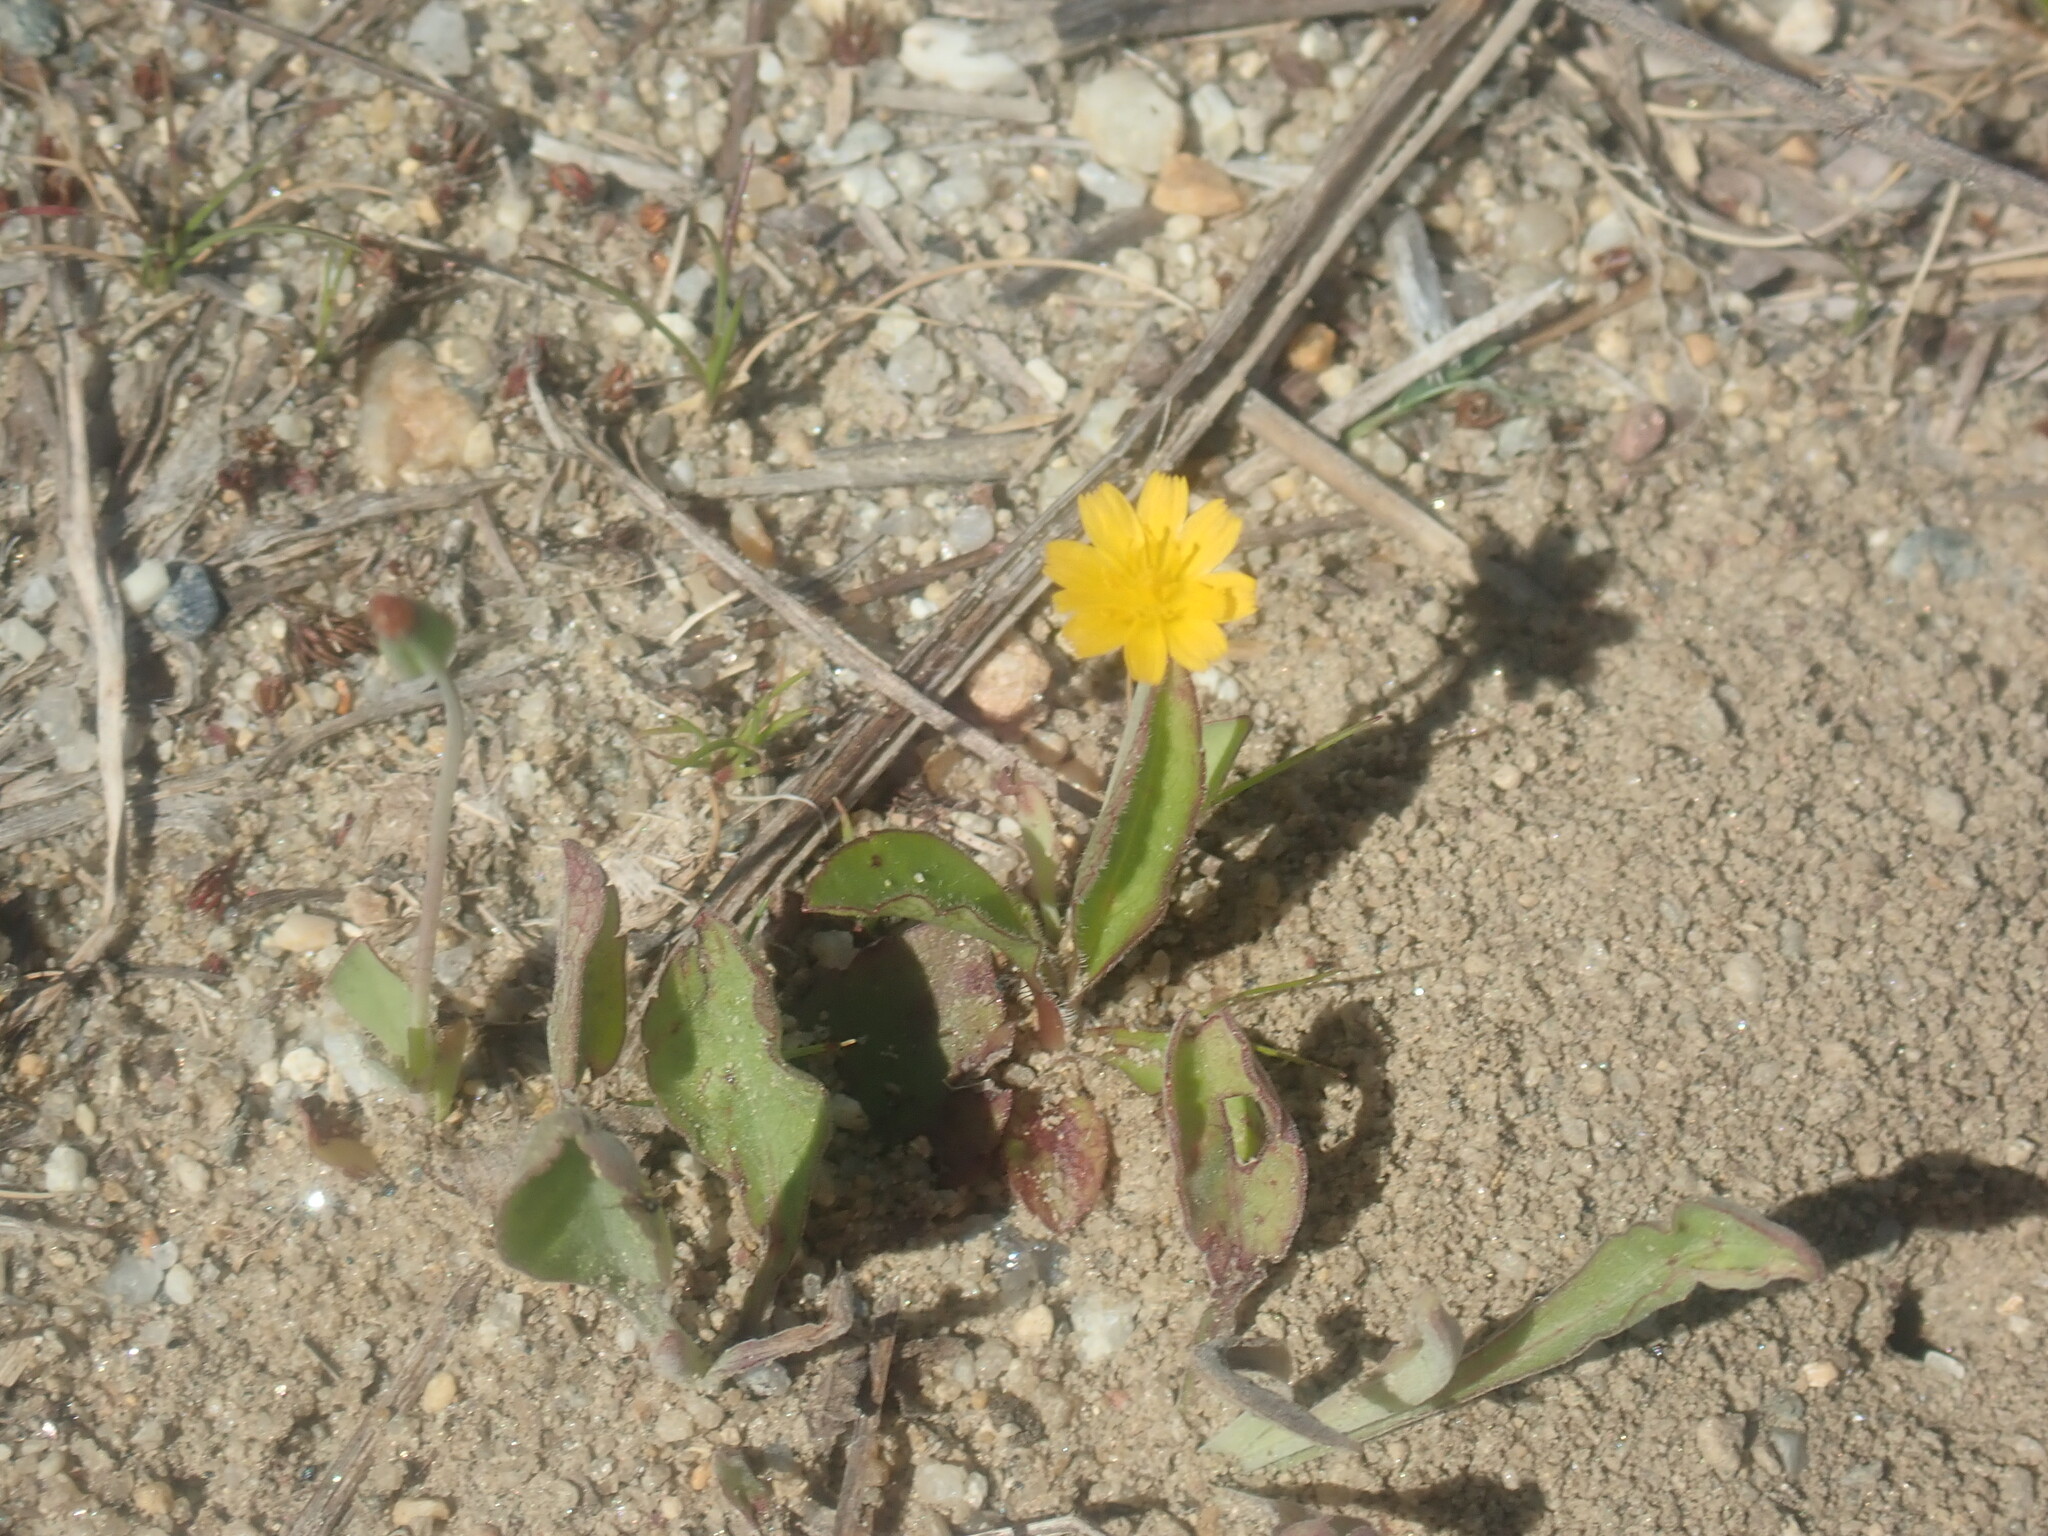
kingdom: Plantae
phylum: Tracheophyta
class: Magnoliopsida
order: Asterales
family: Asteraceae
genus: Krigia
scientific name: Krigia virginica
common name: Virginia dwarf-dandelion
